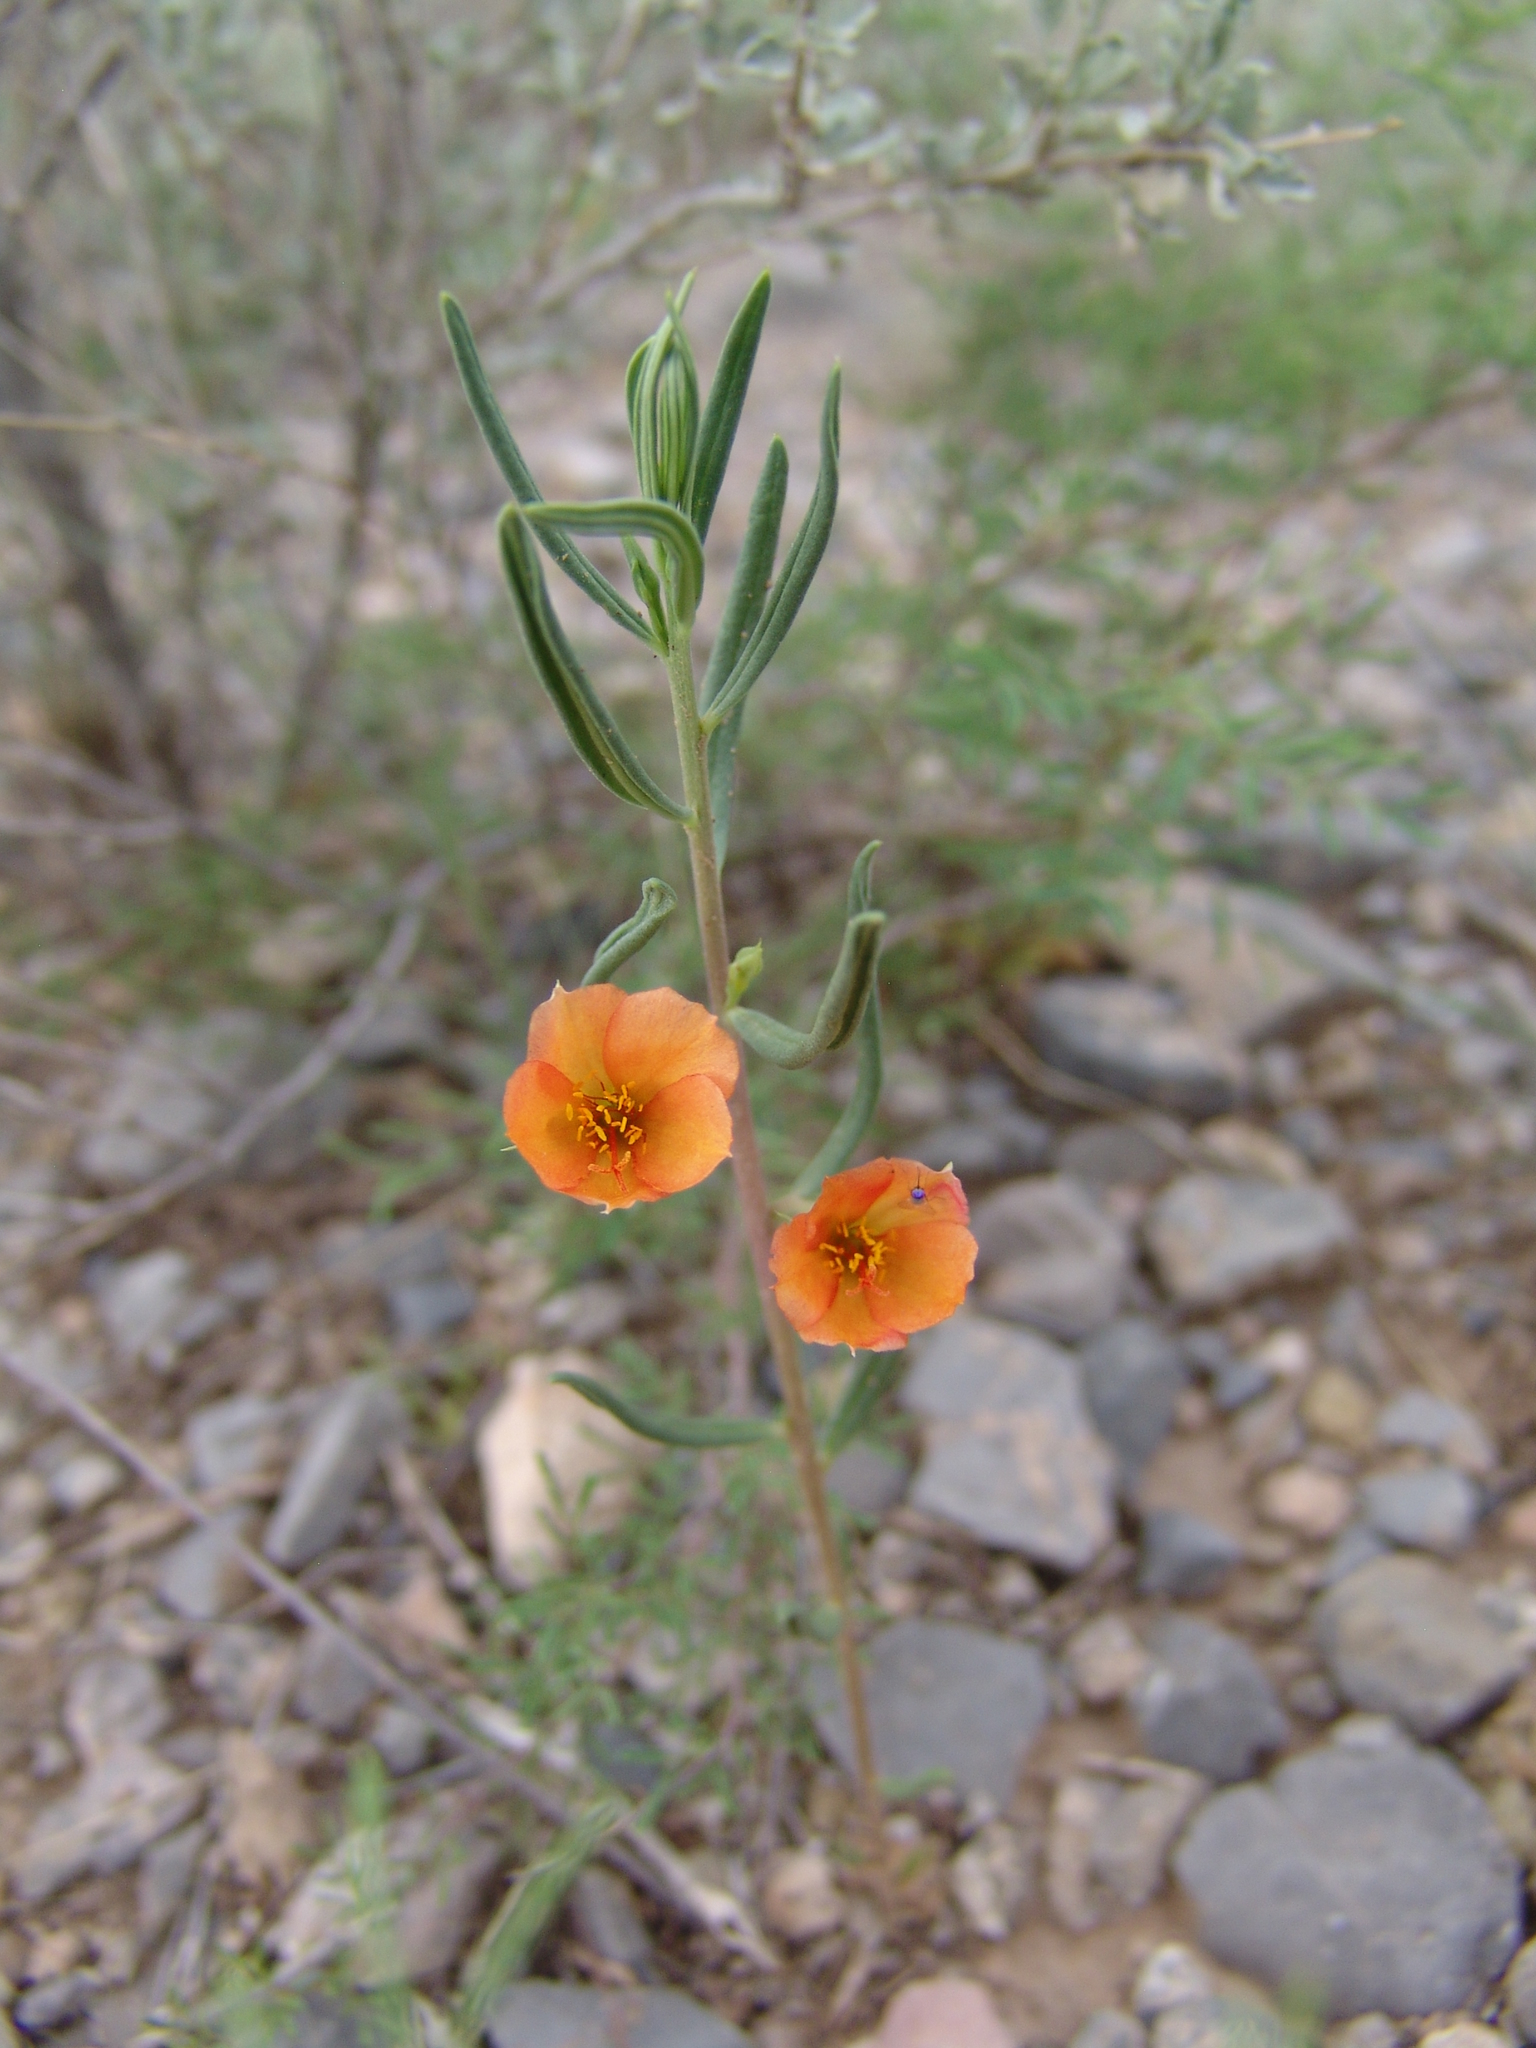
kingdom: Plantae
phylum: Tracheophyta
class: Magnoliopsida
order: Caryophyllales
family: Montiaceae
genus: Phemeranthus
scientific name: Phemeranthus aurantiacus
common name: Orange fameflower
